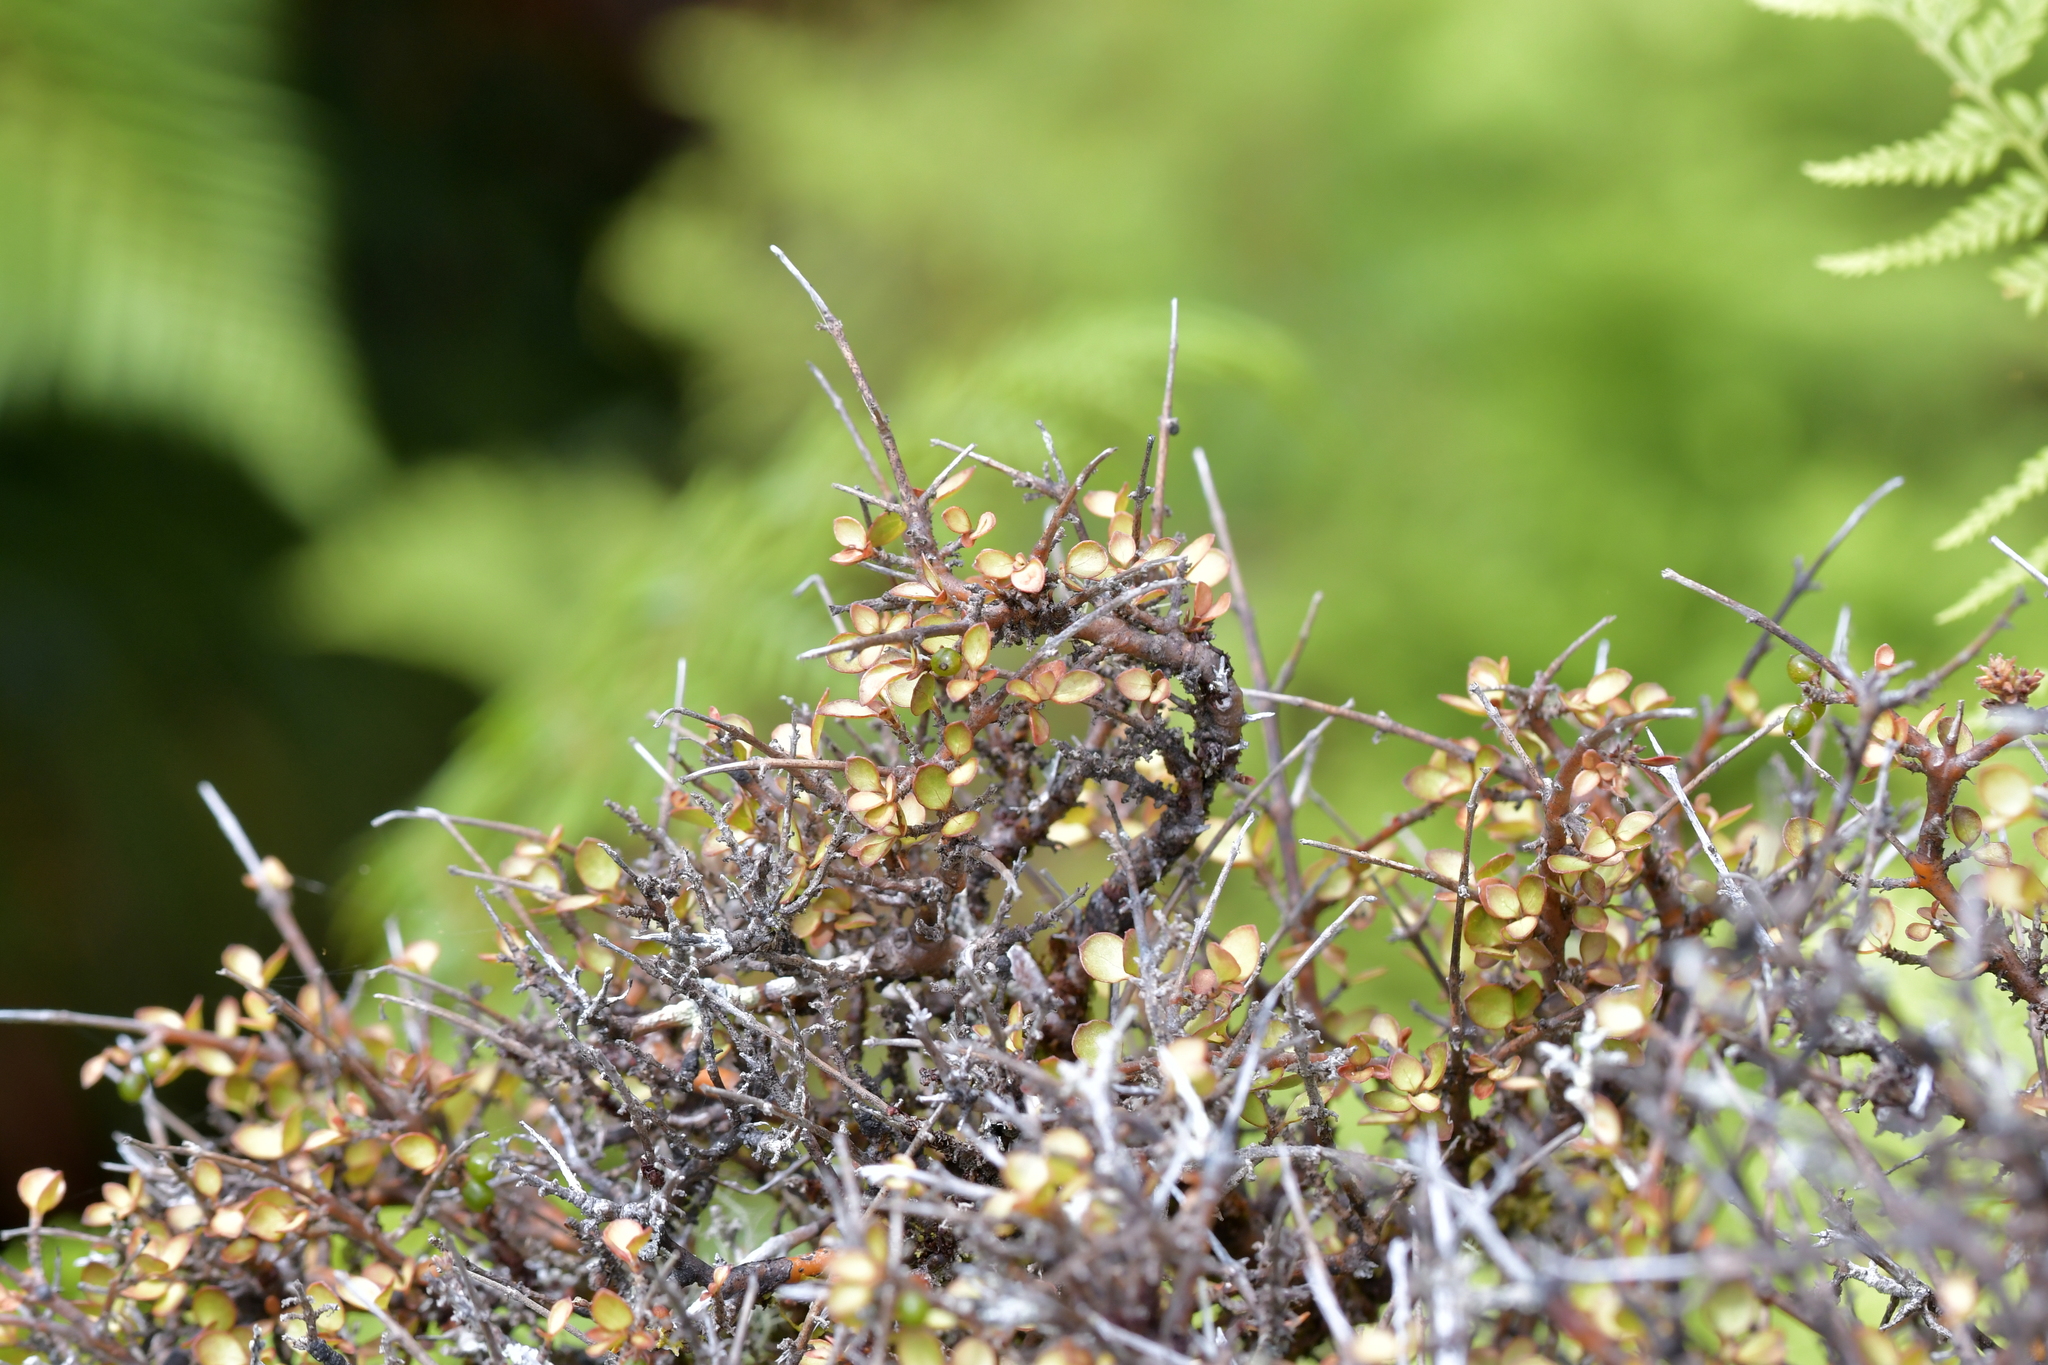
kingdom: Plantae
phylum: Tracheophyta
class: Magnoliopsida
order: Gentianales
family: Rubiaceae
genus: Coprosma
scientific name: Coprosma rhamnoides
